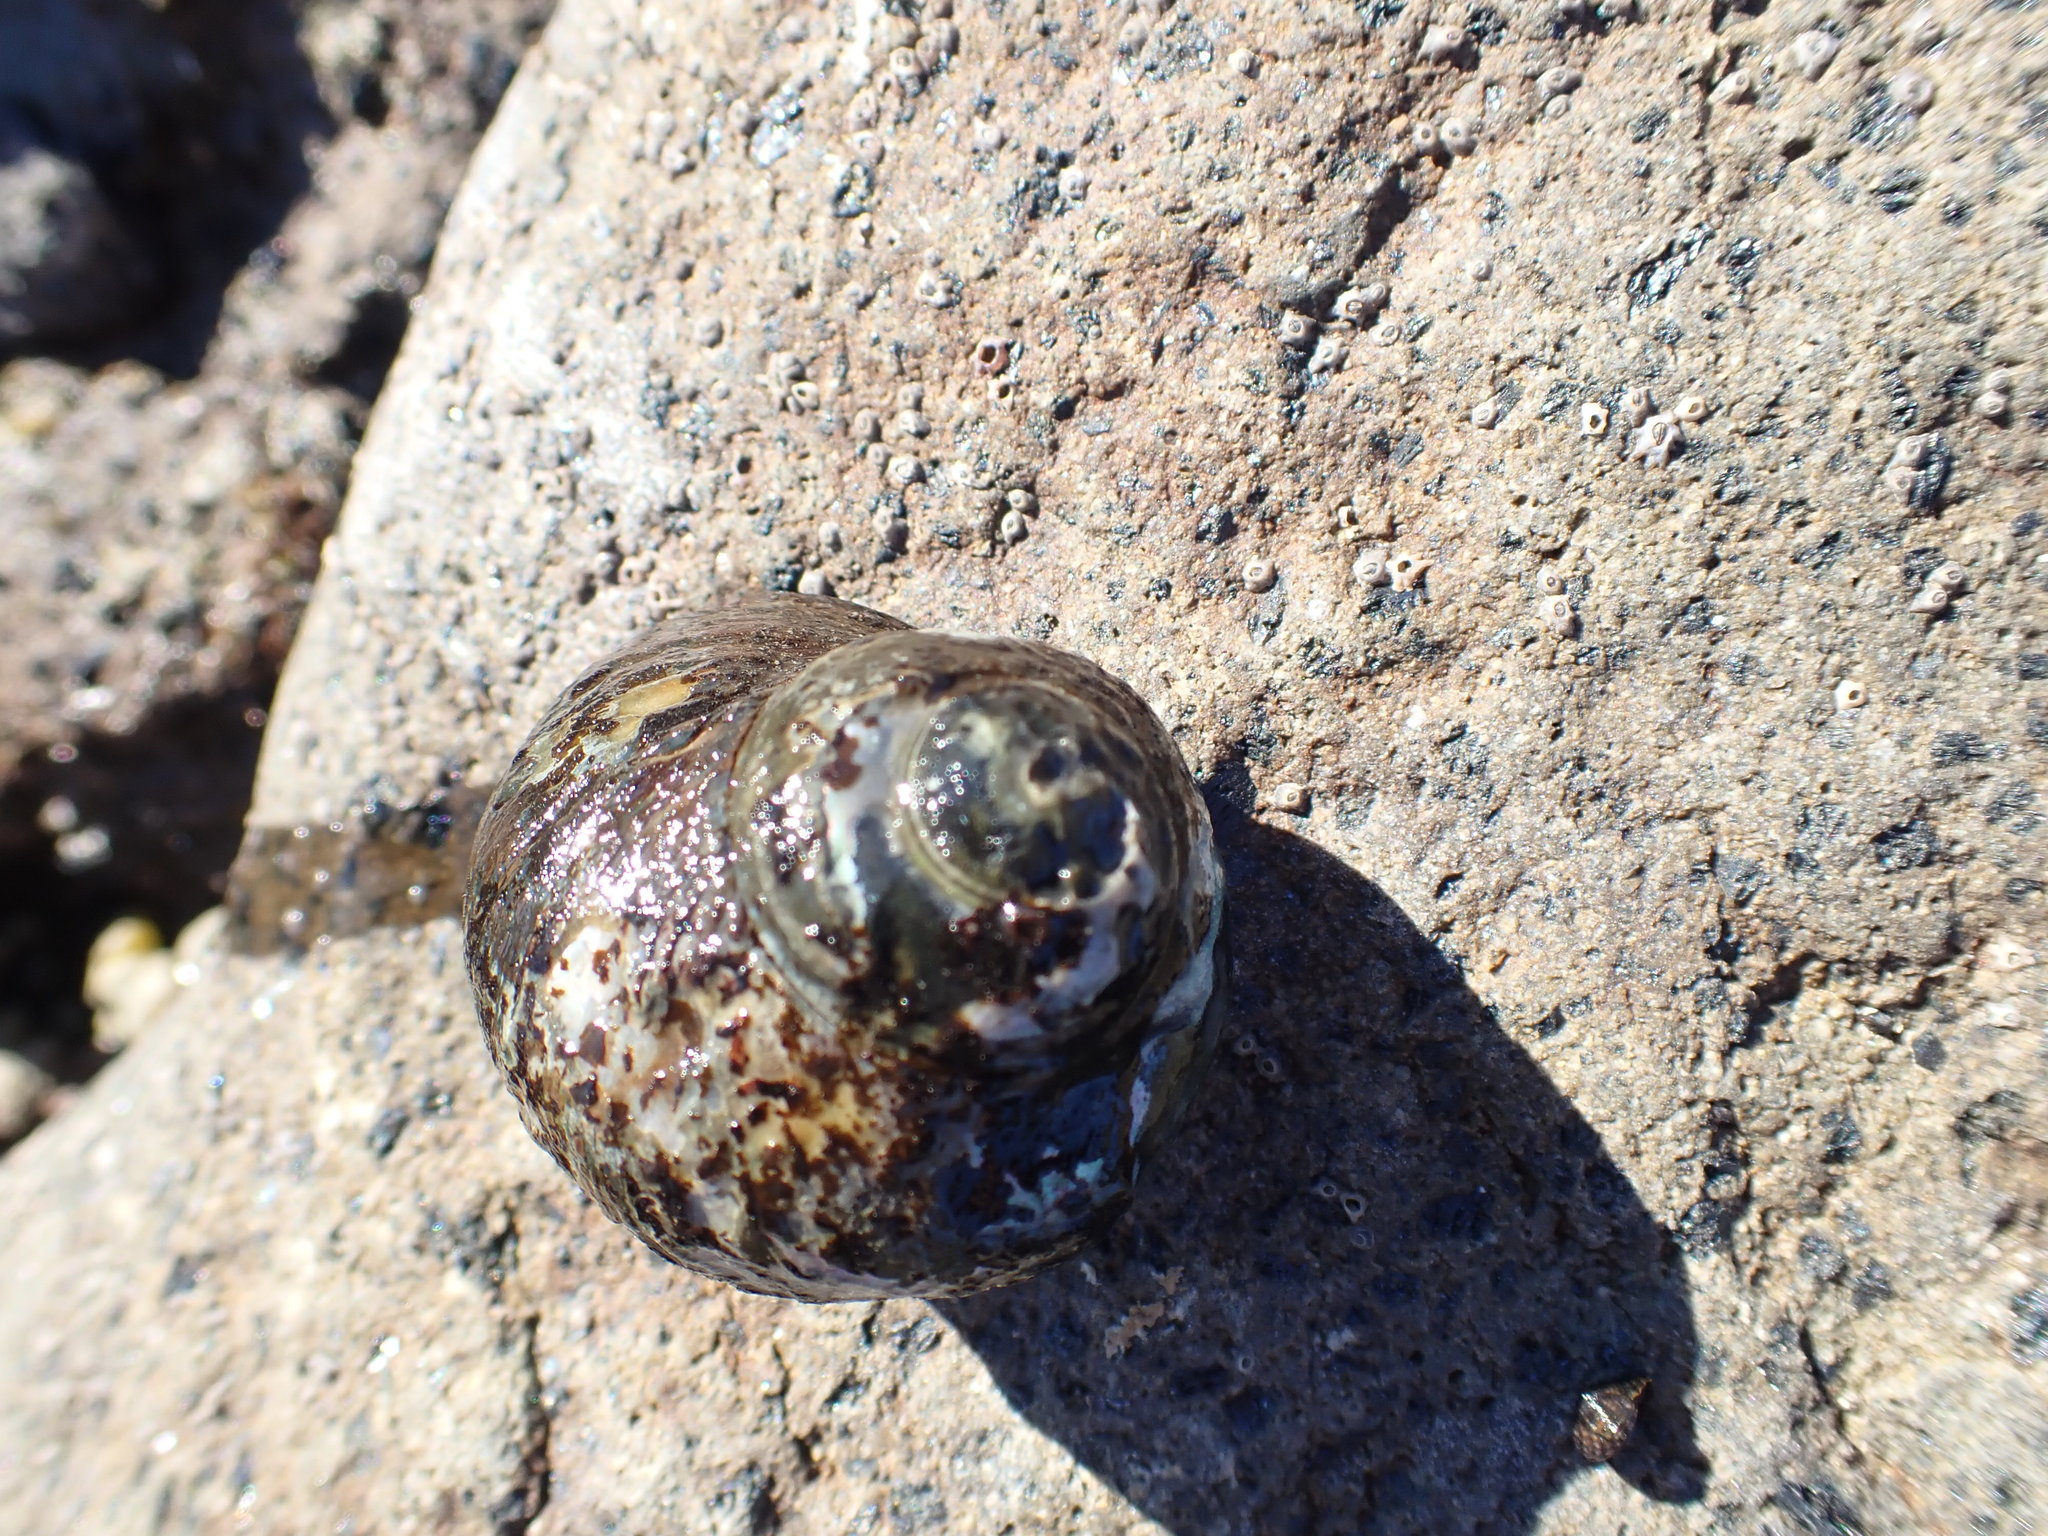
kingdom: Animalia
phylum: Mollusca
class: Gastropoda
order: Trochida
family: Turbinidae
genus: Lunella
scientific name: Lunella smaragda
